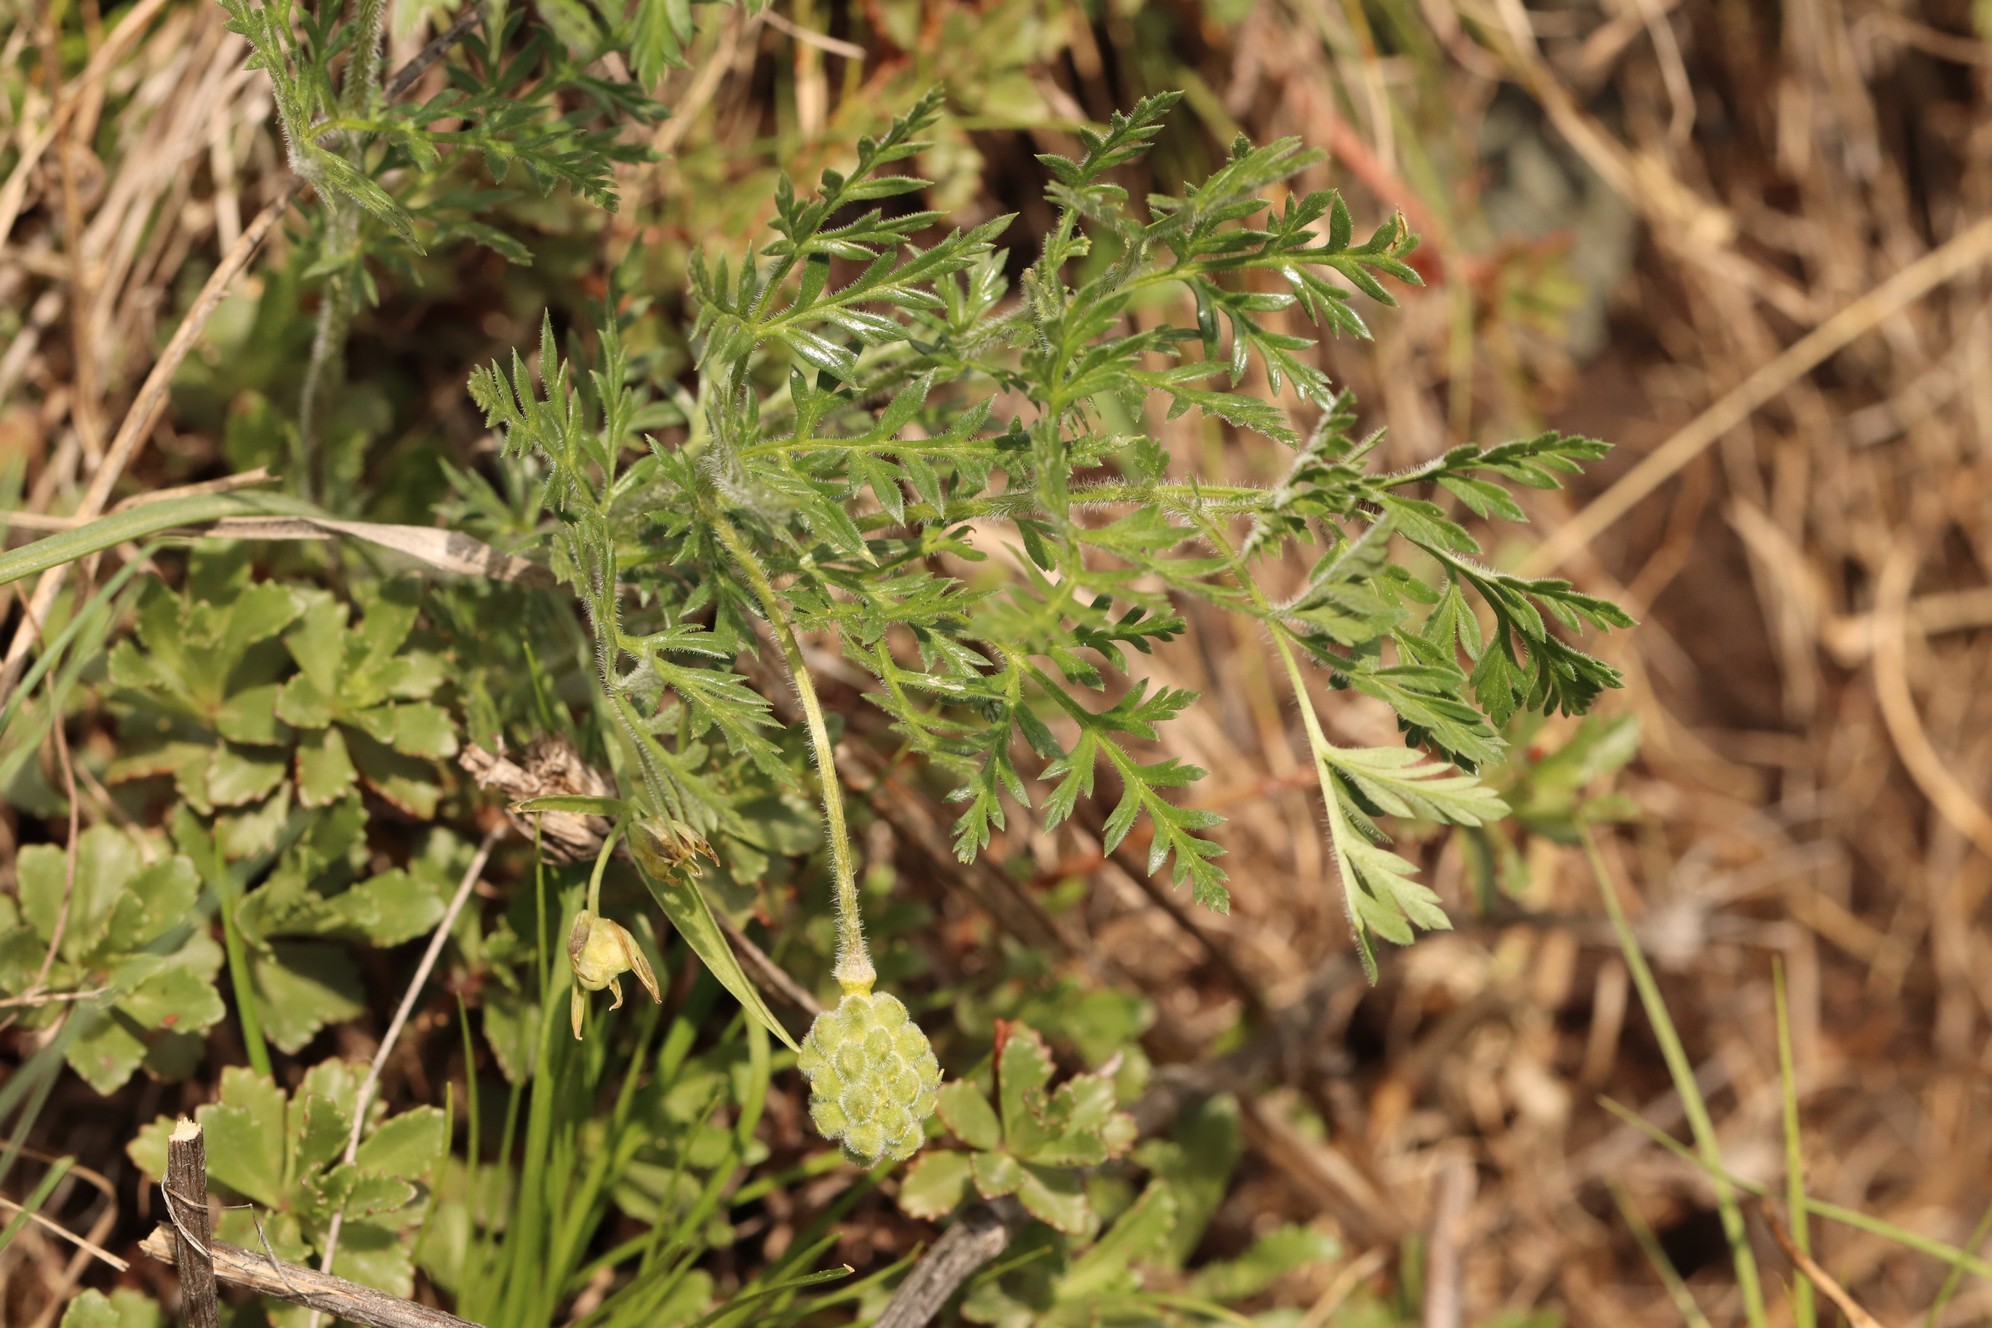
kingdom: Plantae
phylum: Tracheophyta
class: Magnoliopsida
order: Ranunculales
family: Ranunculaceae
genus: Adonis
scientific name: Adonis villosa
